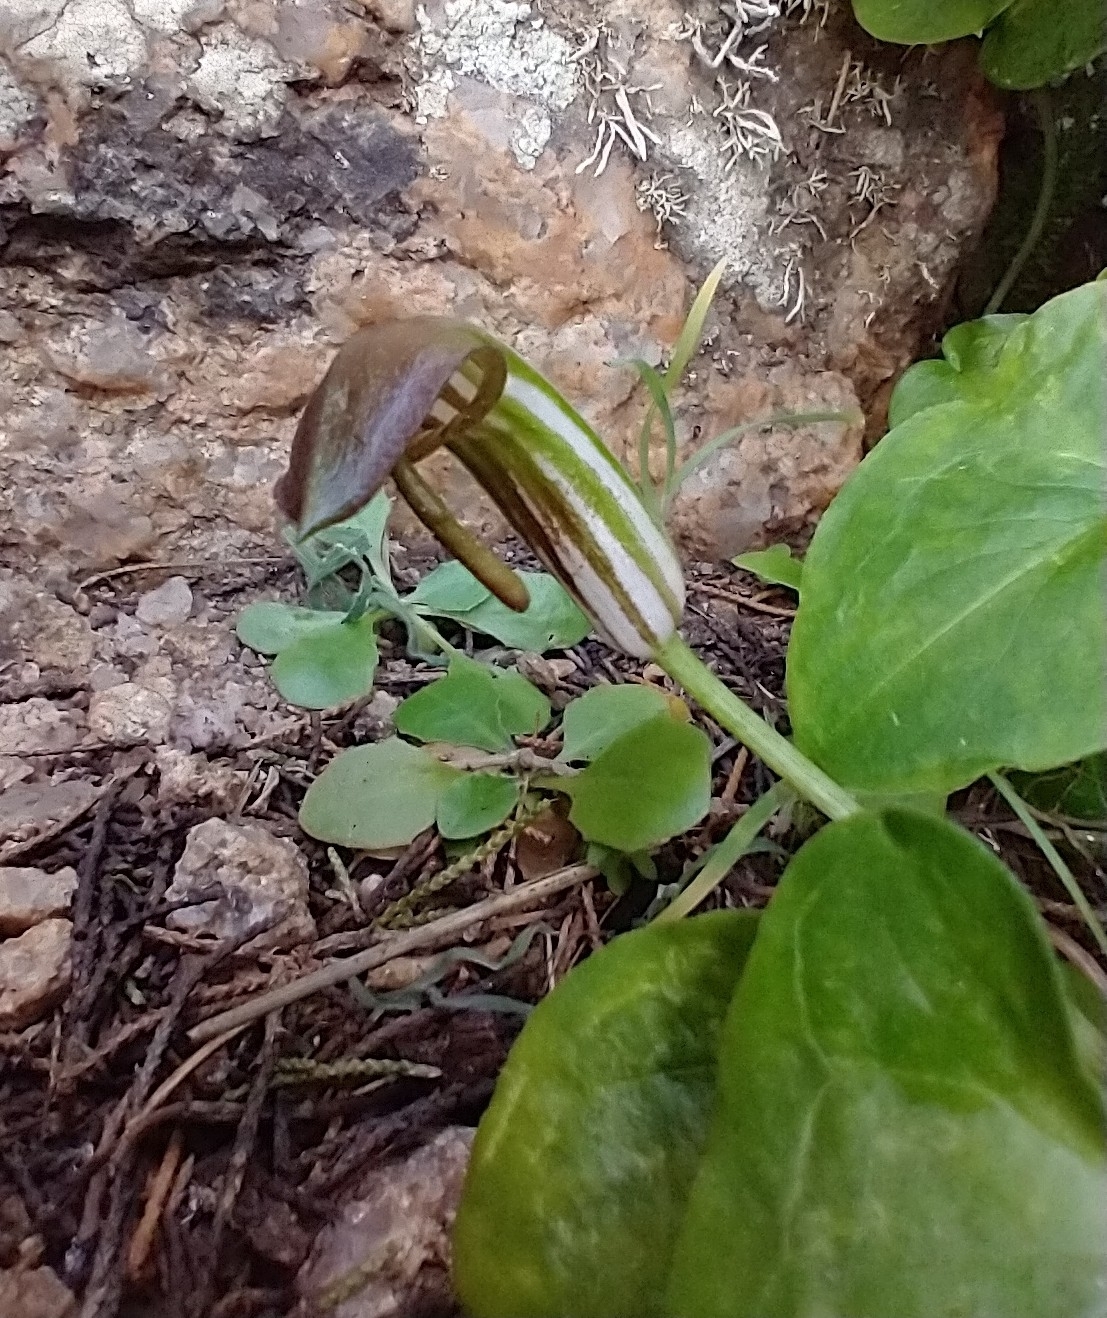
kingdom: Plantae
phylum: Tracheophyta
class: Liliopsida
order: Alismatales
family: Araceae
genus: Arisarum
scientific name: Arisarum vulgare
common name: Common arisarum
